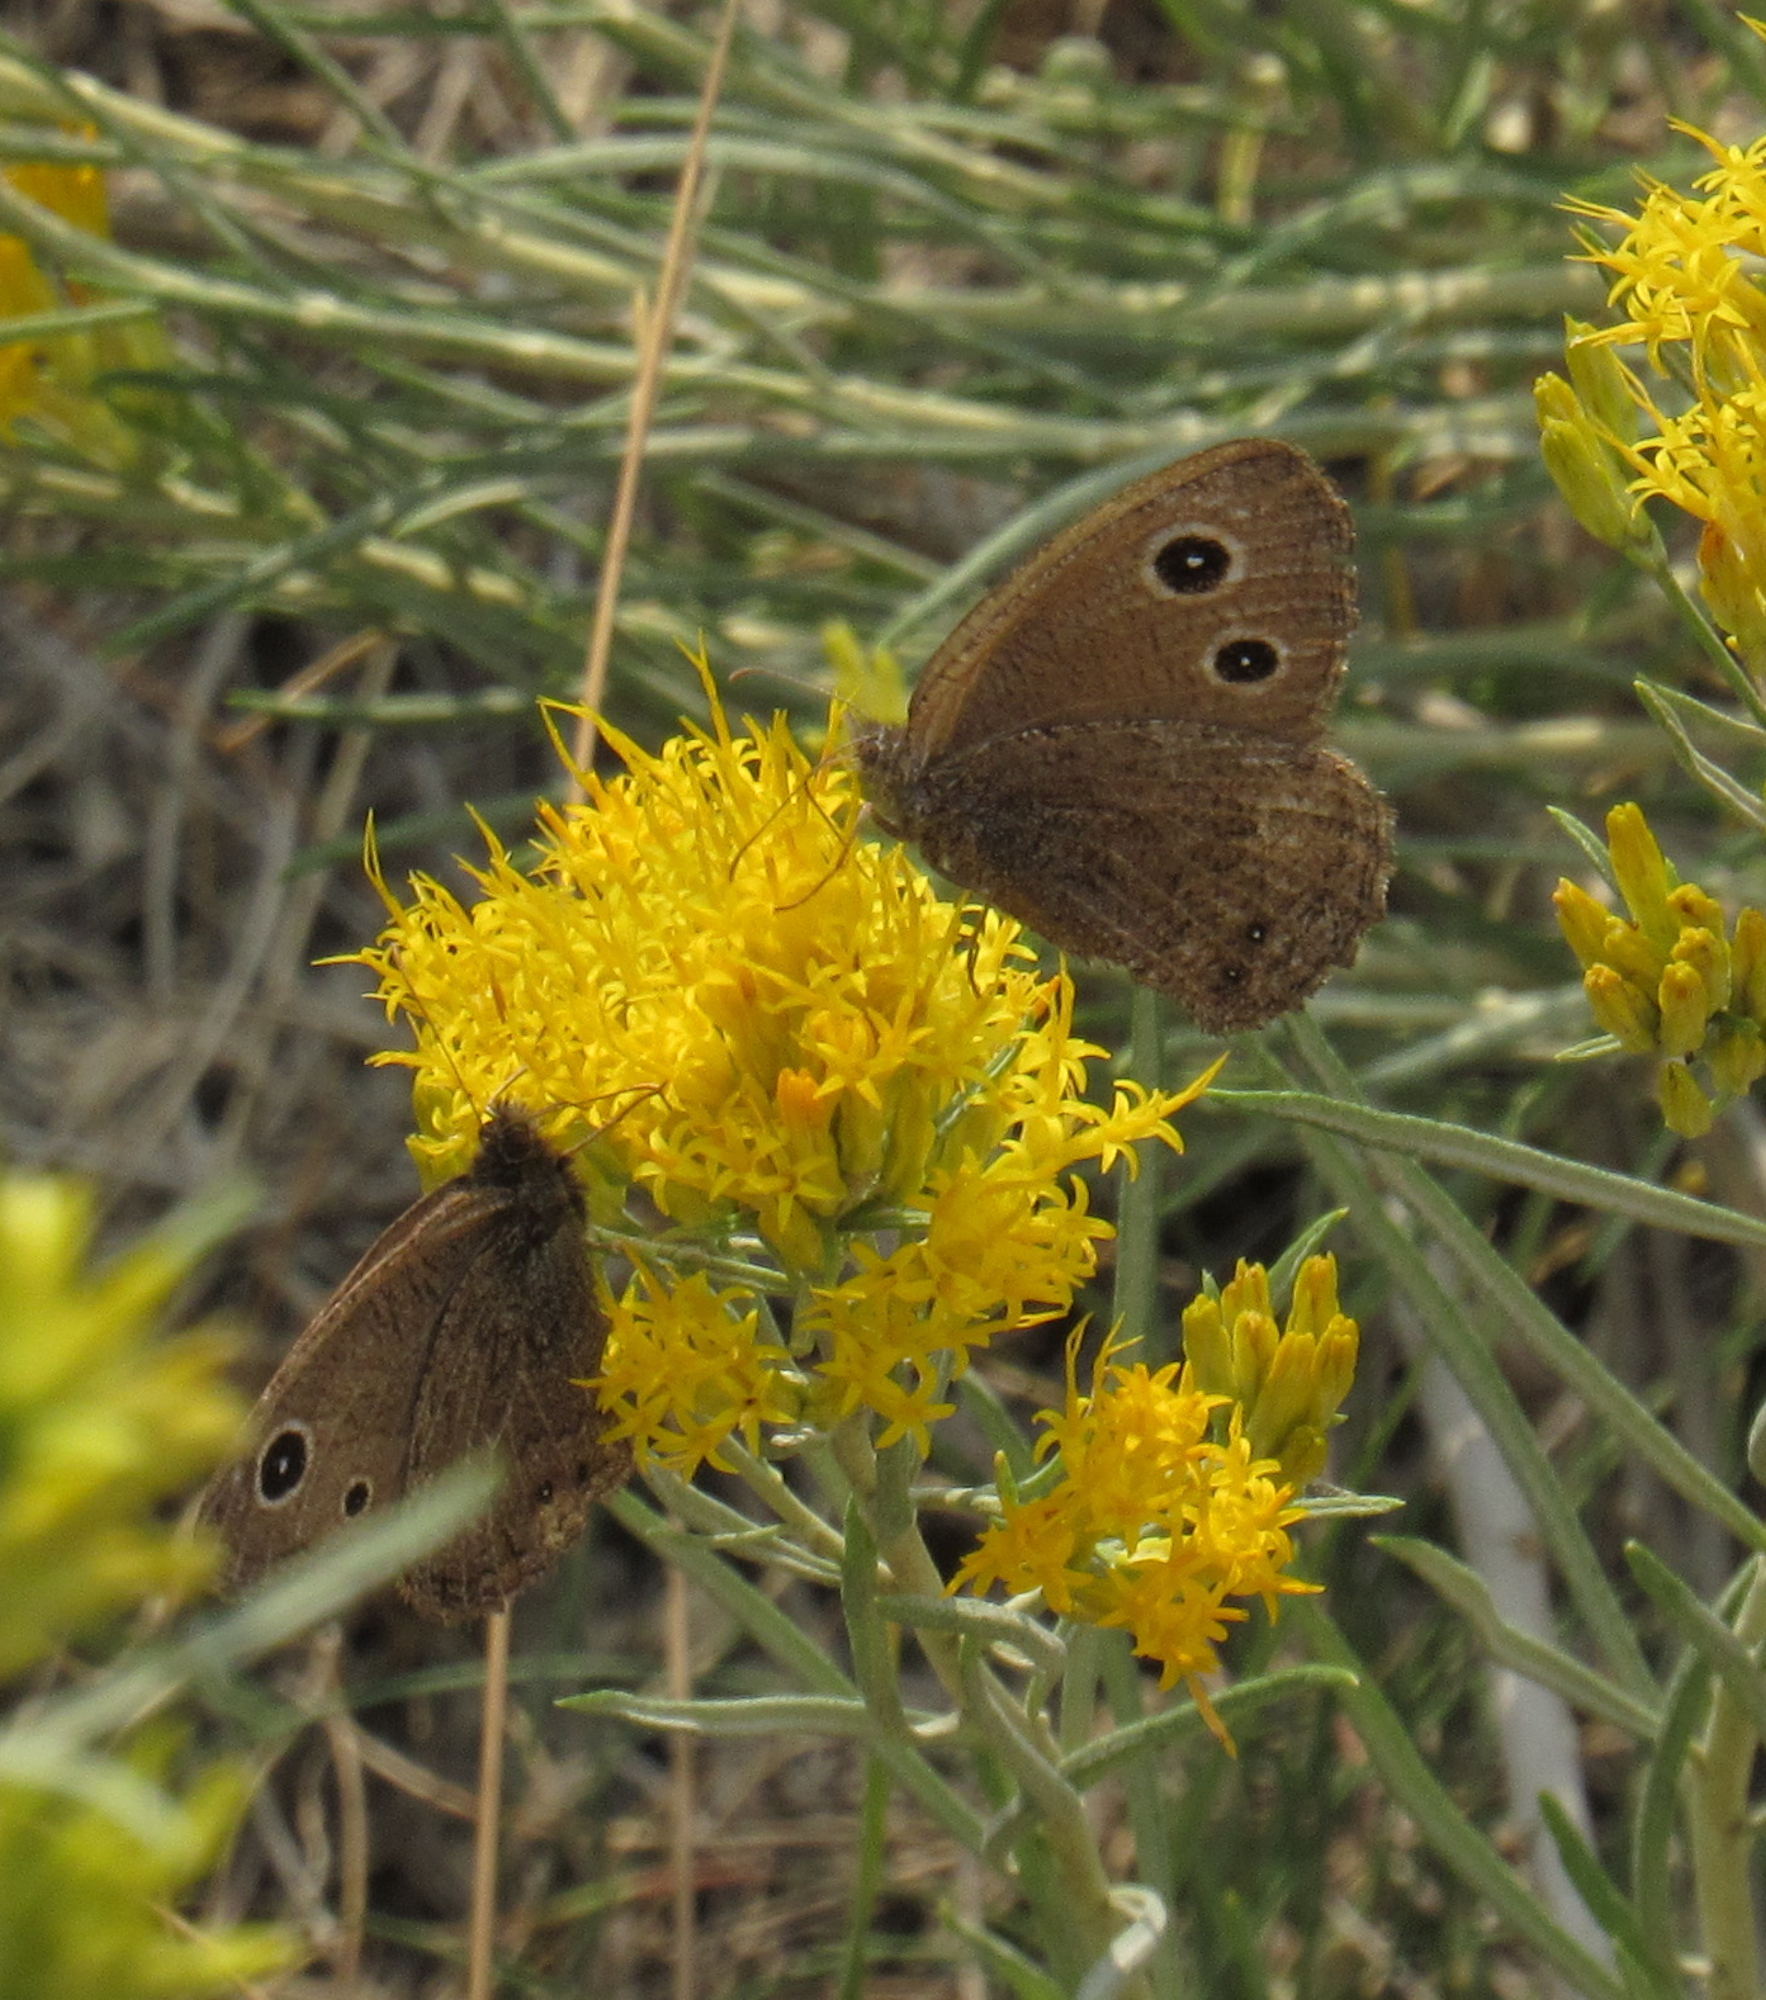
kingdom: Animalia
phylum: Arthropoda
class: Insecta
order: Lepidoptera
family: Nymphalidae
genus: Cercyonis
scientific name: Cercyonis oetus
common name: Small wood-nymph
